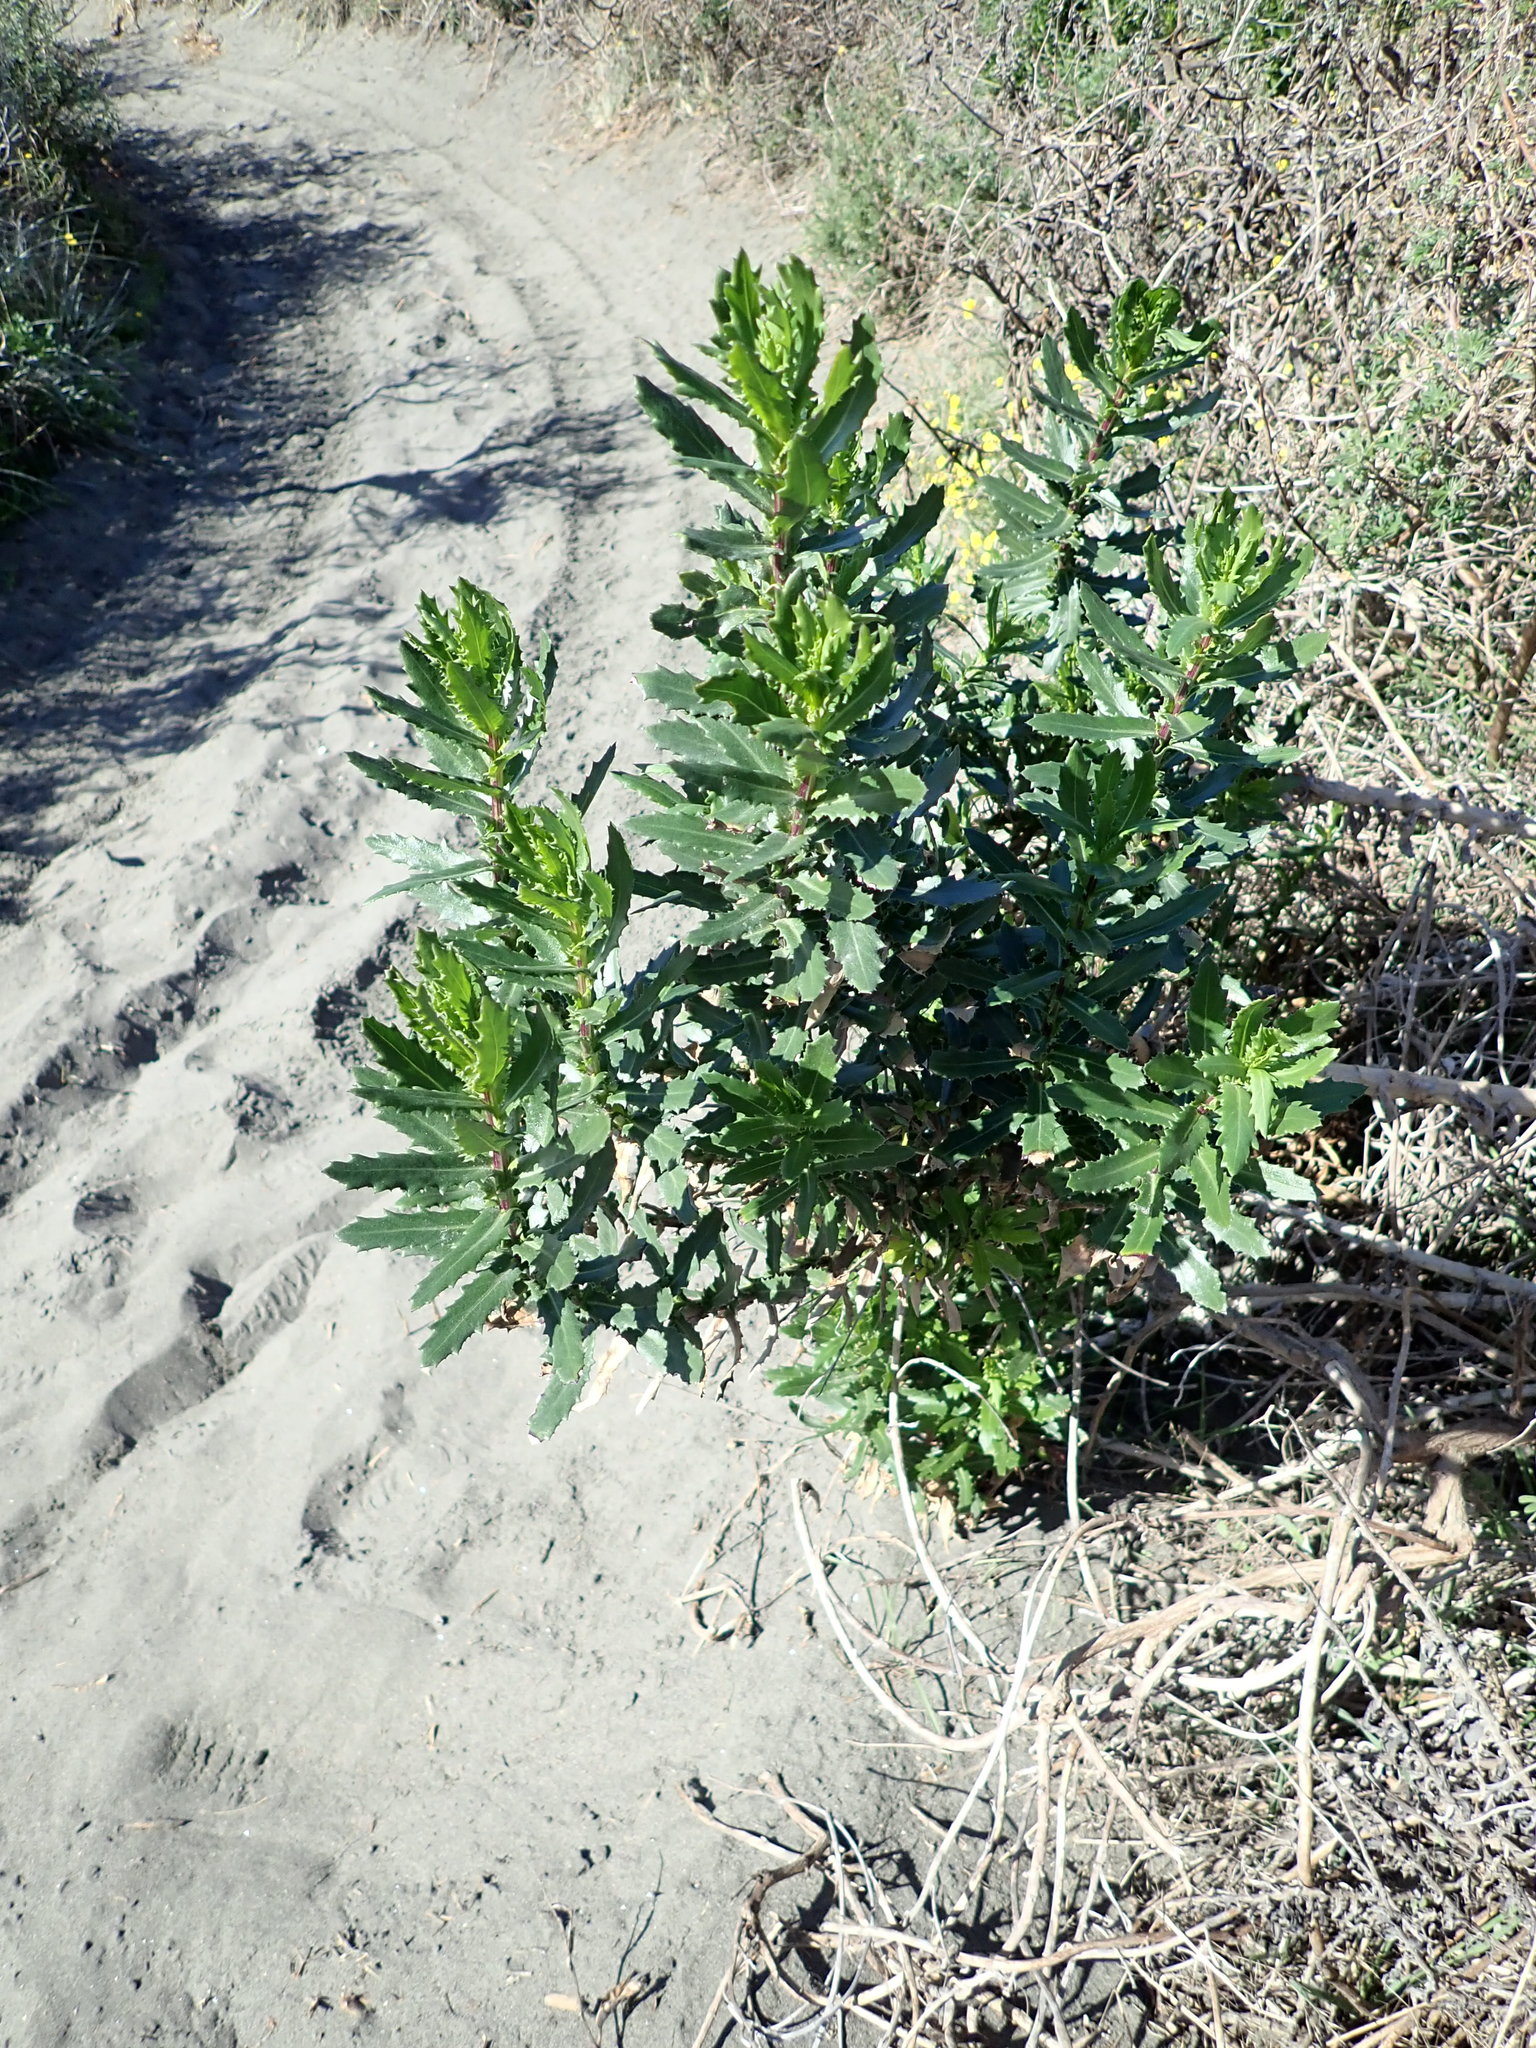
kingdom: Plantae
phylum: Tracheophyta
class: Magnoliopsida
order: Asterales
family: Asteraceae
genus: Senecio
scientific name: Senecio glastifolius
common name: Woad-leaved ragwort
